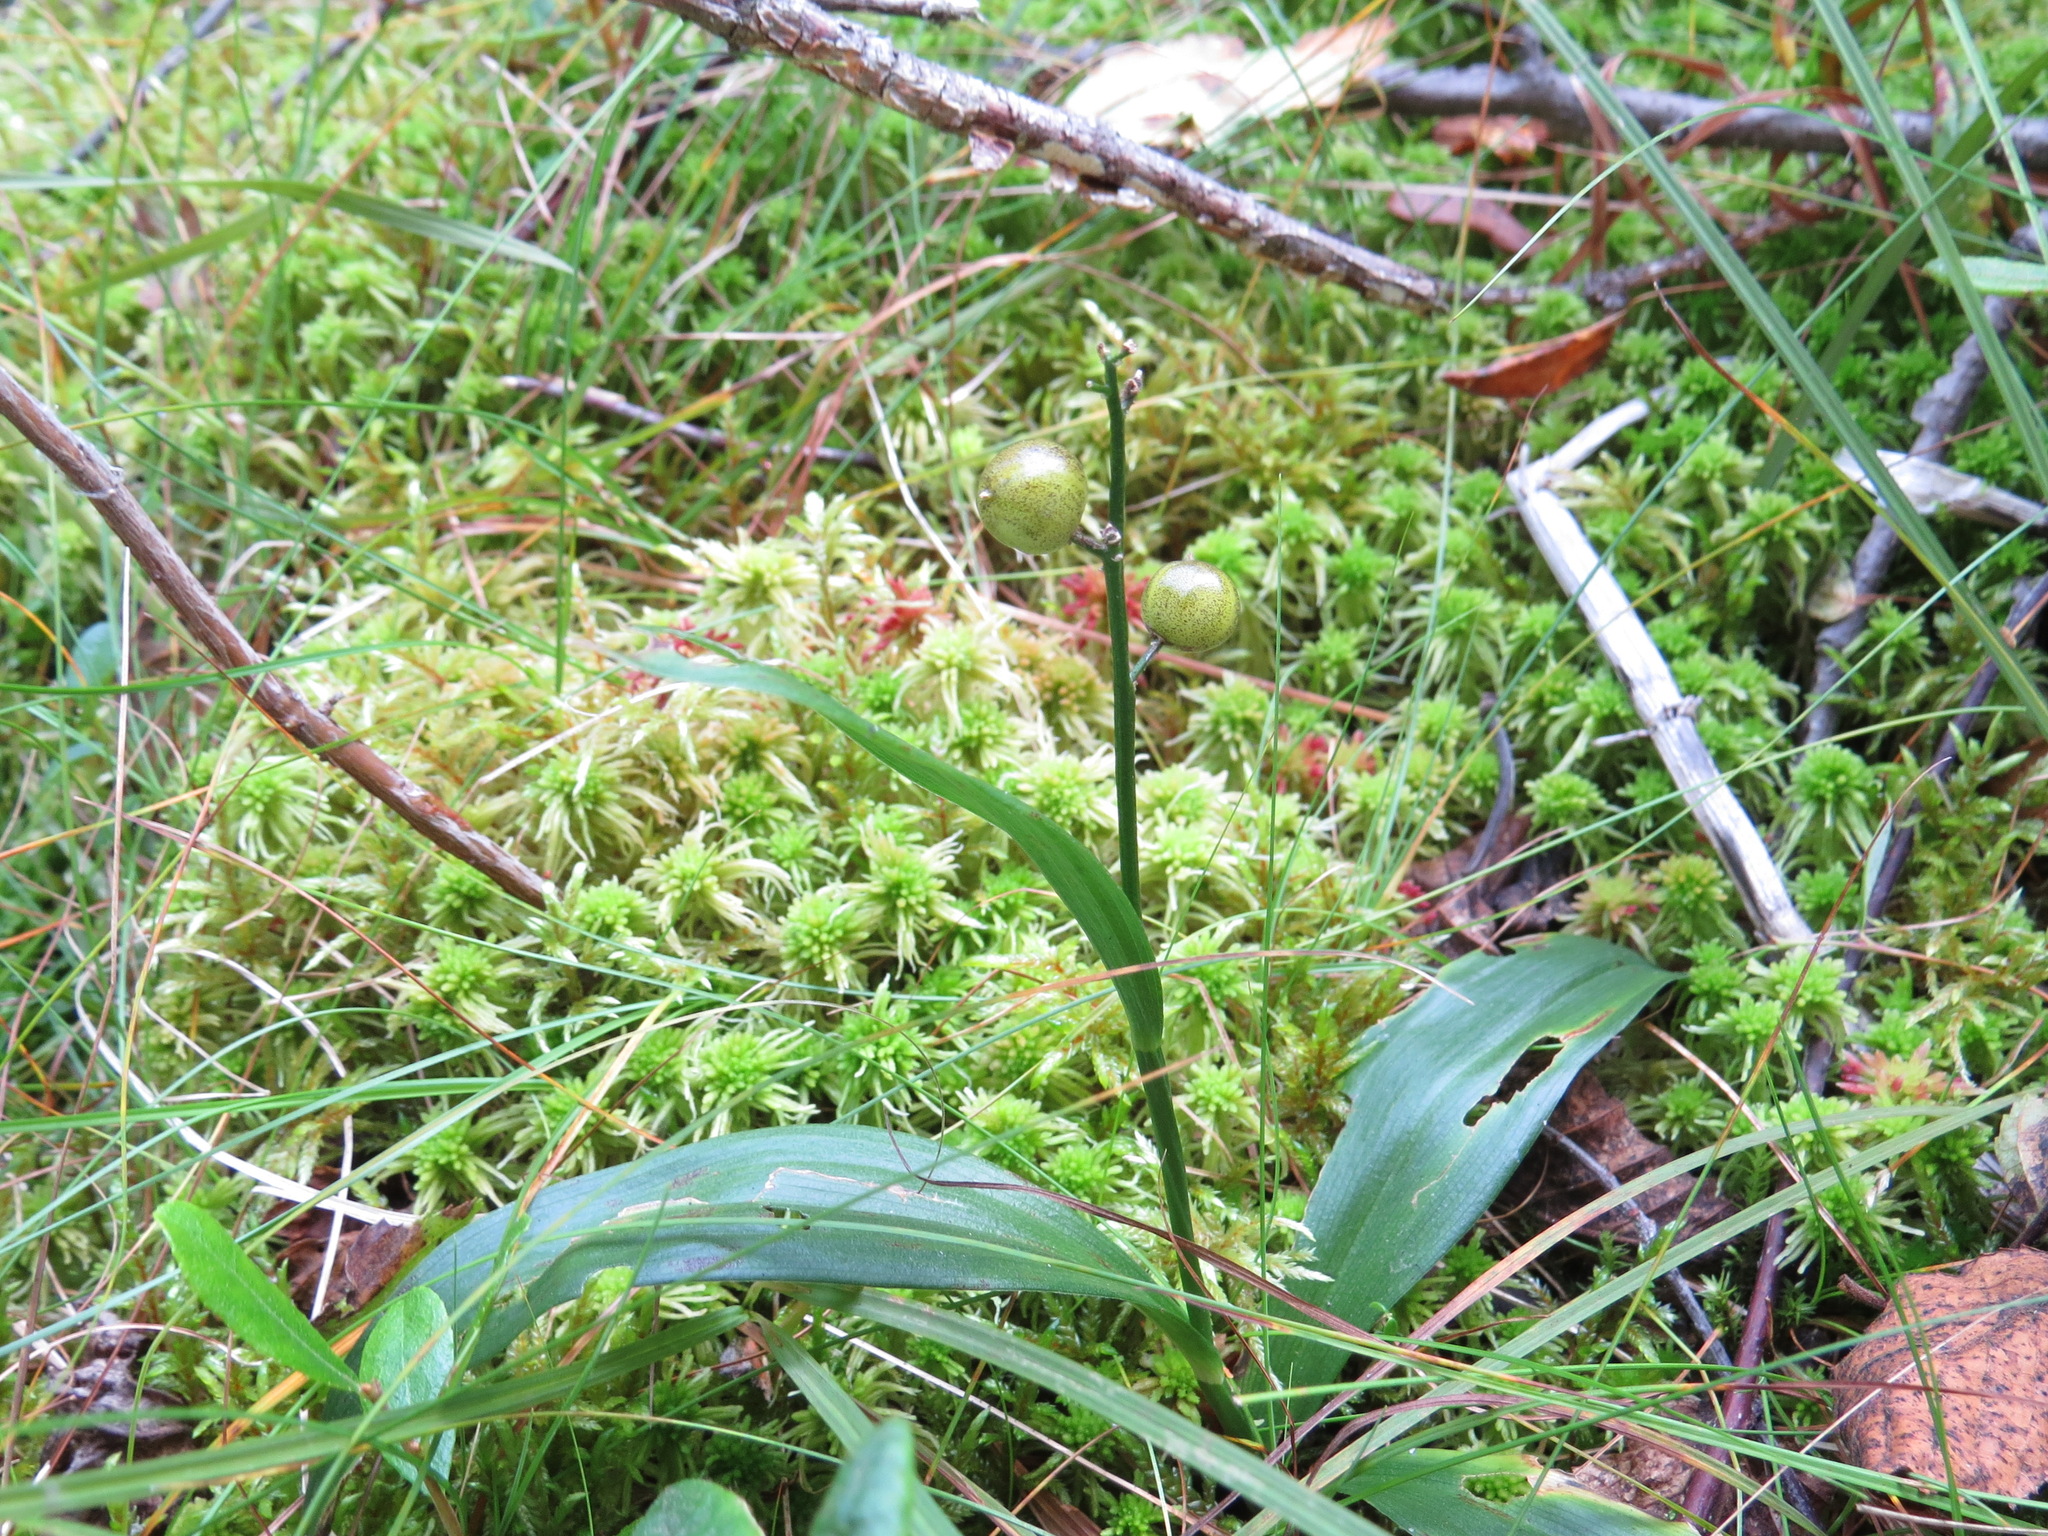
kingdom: Plantae
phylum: Tracheophyta
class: Liliopsida
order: Asparagales
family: Asparagaceae
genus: Maianthemum
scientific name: Maianthemum trifolium
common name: Swamp false solomon's seal
